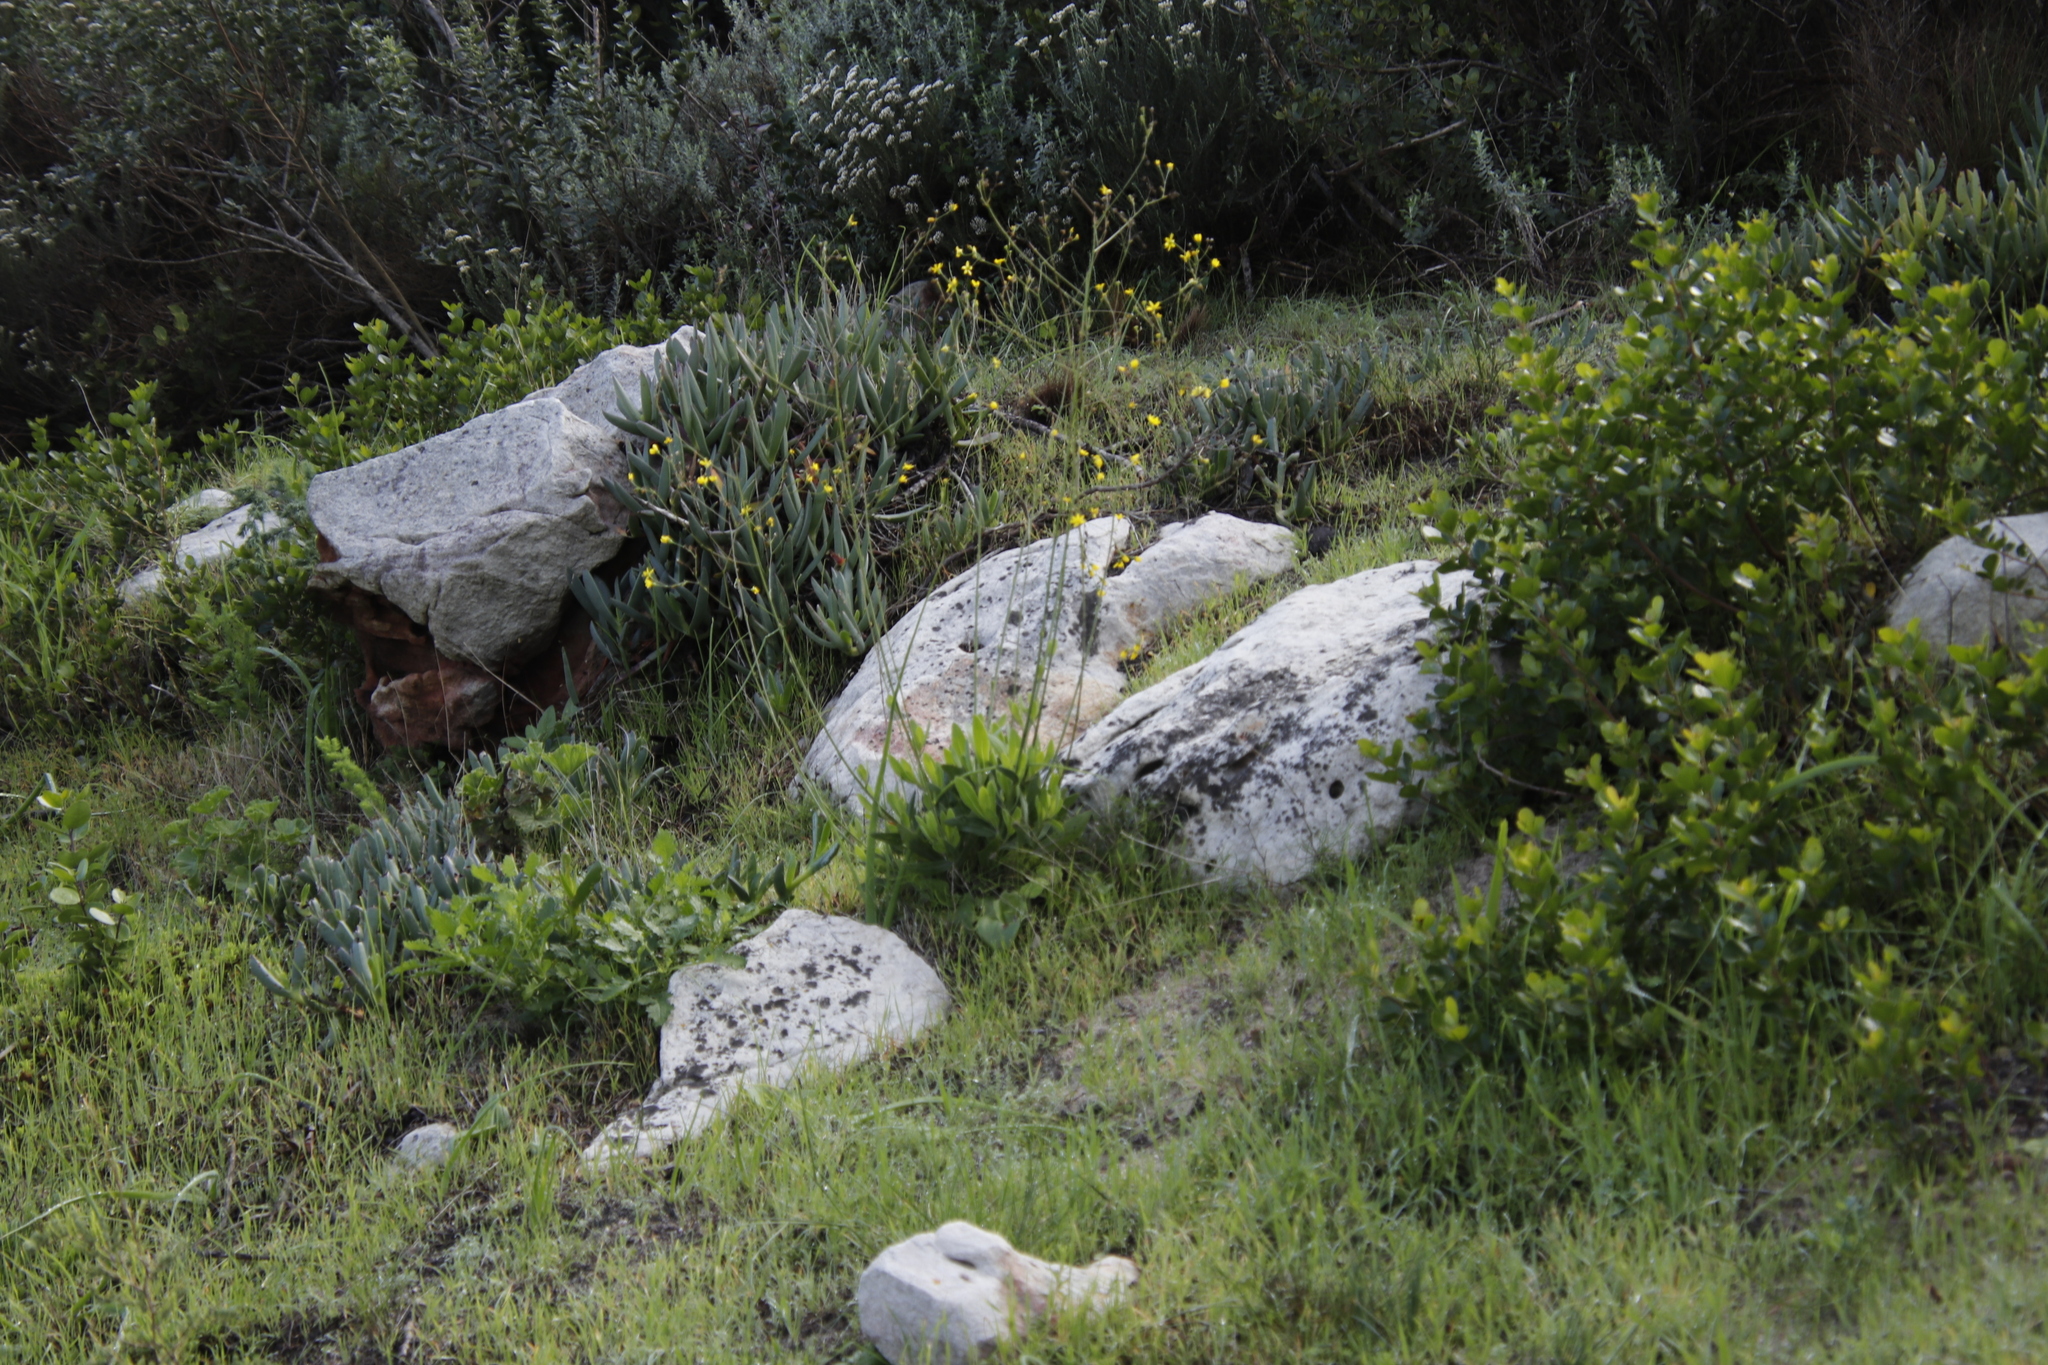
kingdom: Plantae
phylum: Tracheophyta
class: Magnoliopsida
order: Asterales
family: Asteraceae
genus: Othonna
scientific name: Othonna quinquedentata
